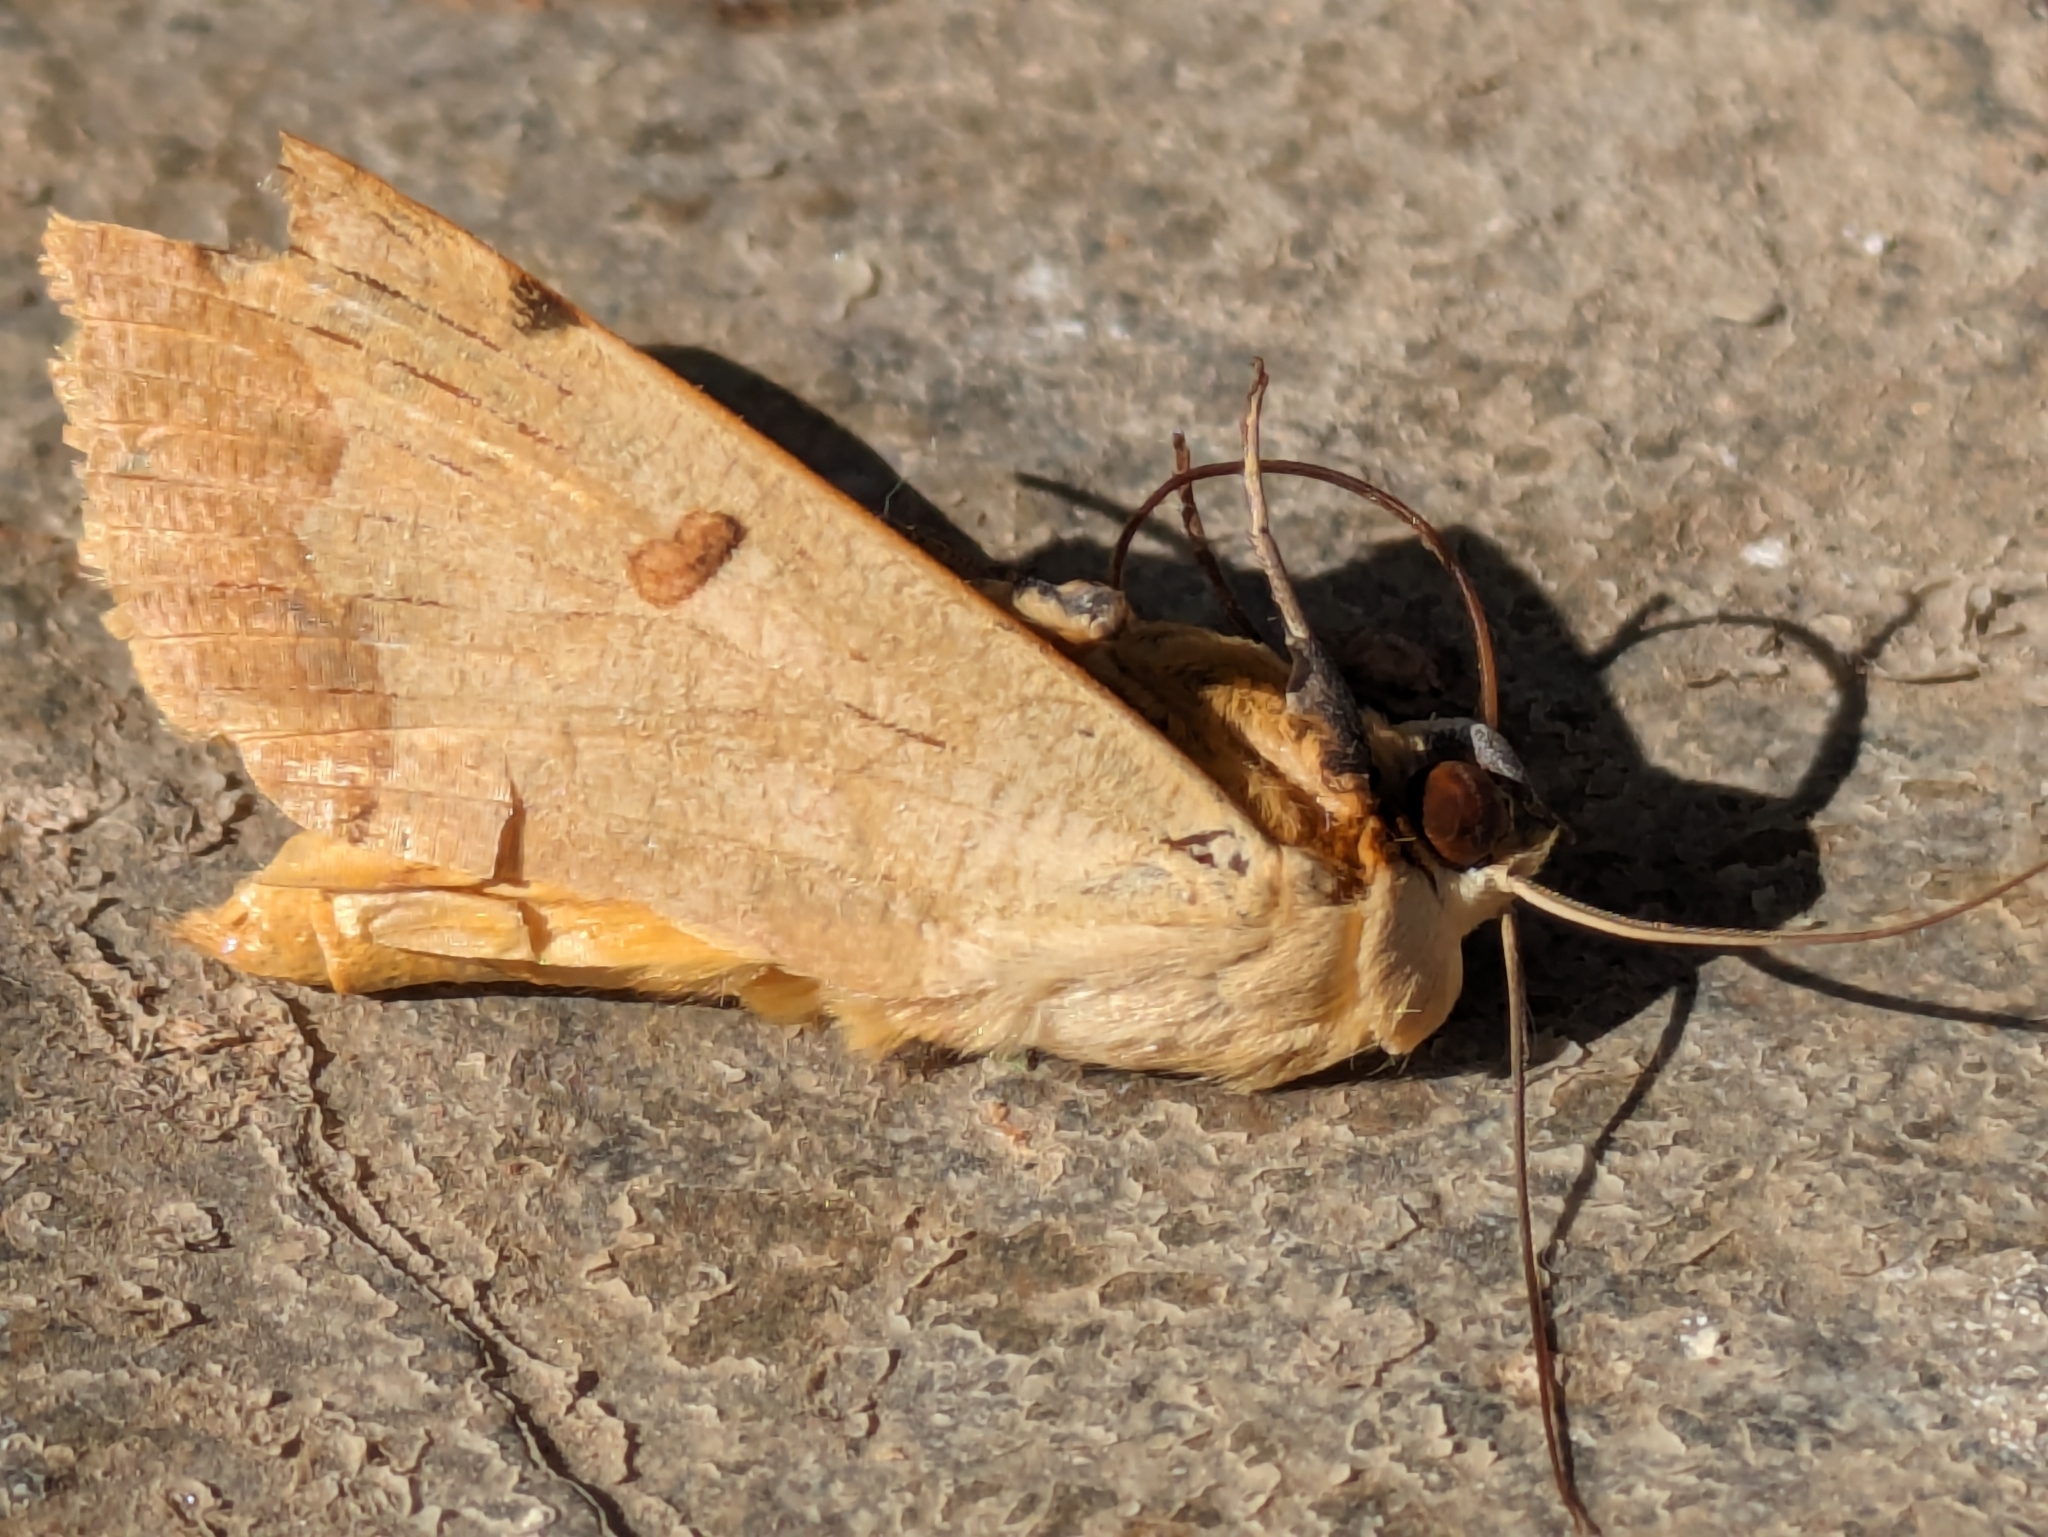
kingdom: Animalia
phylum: Arthropoda
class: Insecta
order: Lepidoptera
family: Erebidae
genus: Ophiusa
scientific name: Ophiusa tirhaca
